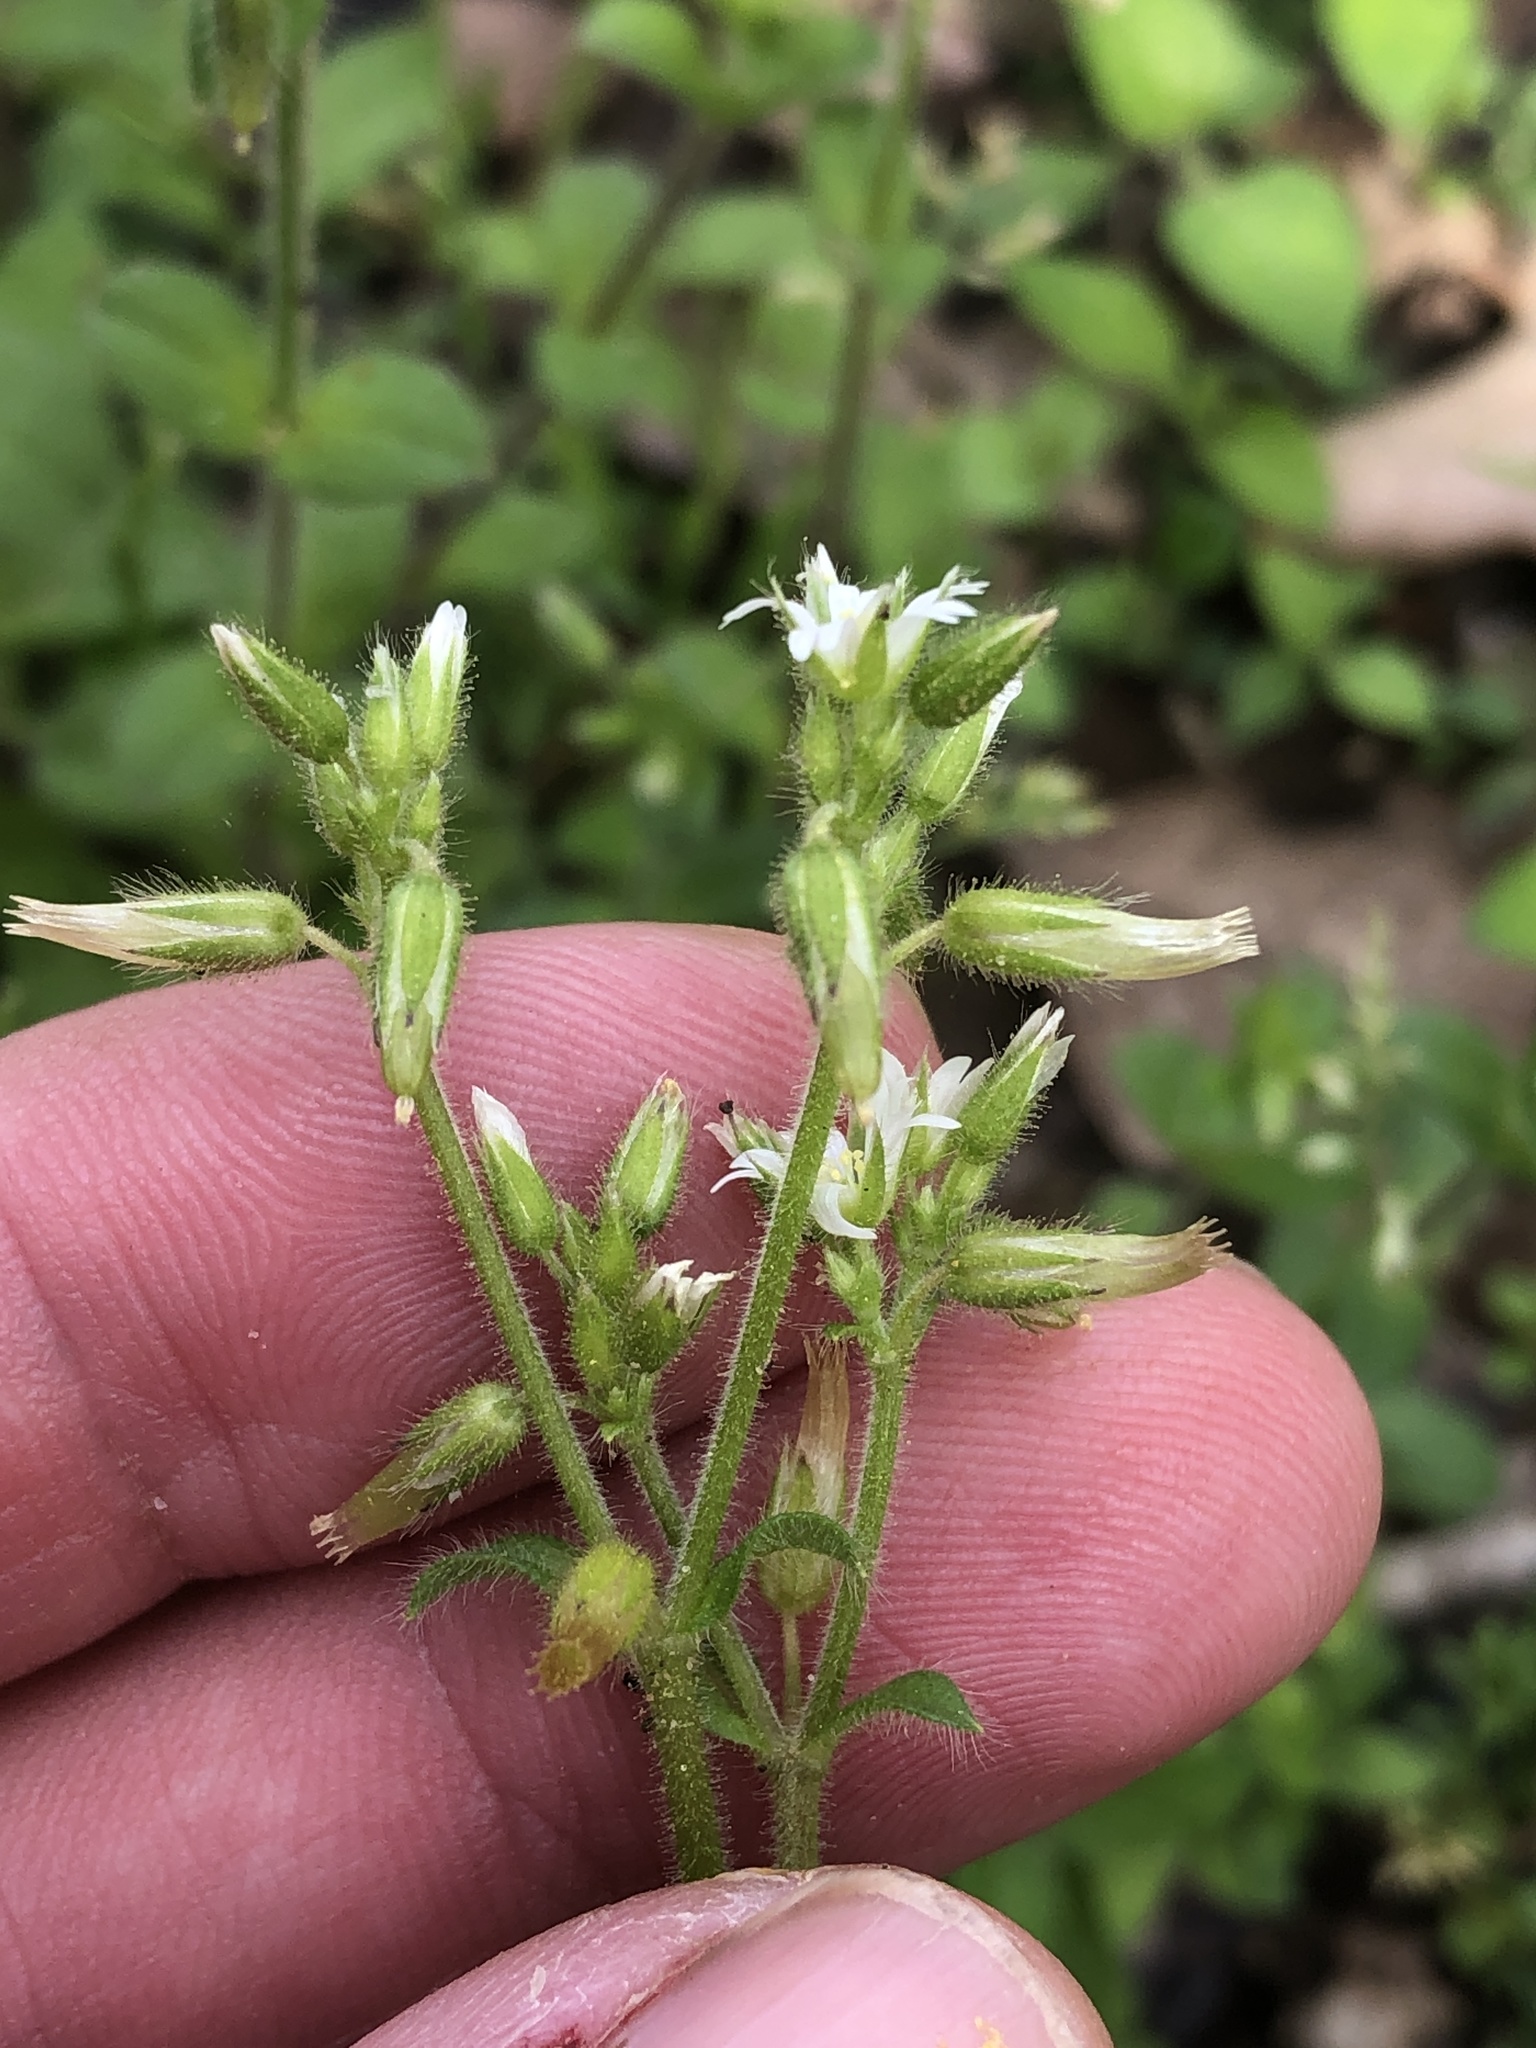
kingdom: Plantae
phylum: Tracheophyta
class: Magnoliopsida
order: Caryophyllales
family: Caryophyllaceae
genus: Cerastium
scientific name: Cerastium glomeratum
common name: Sticky chickweed
